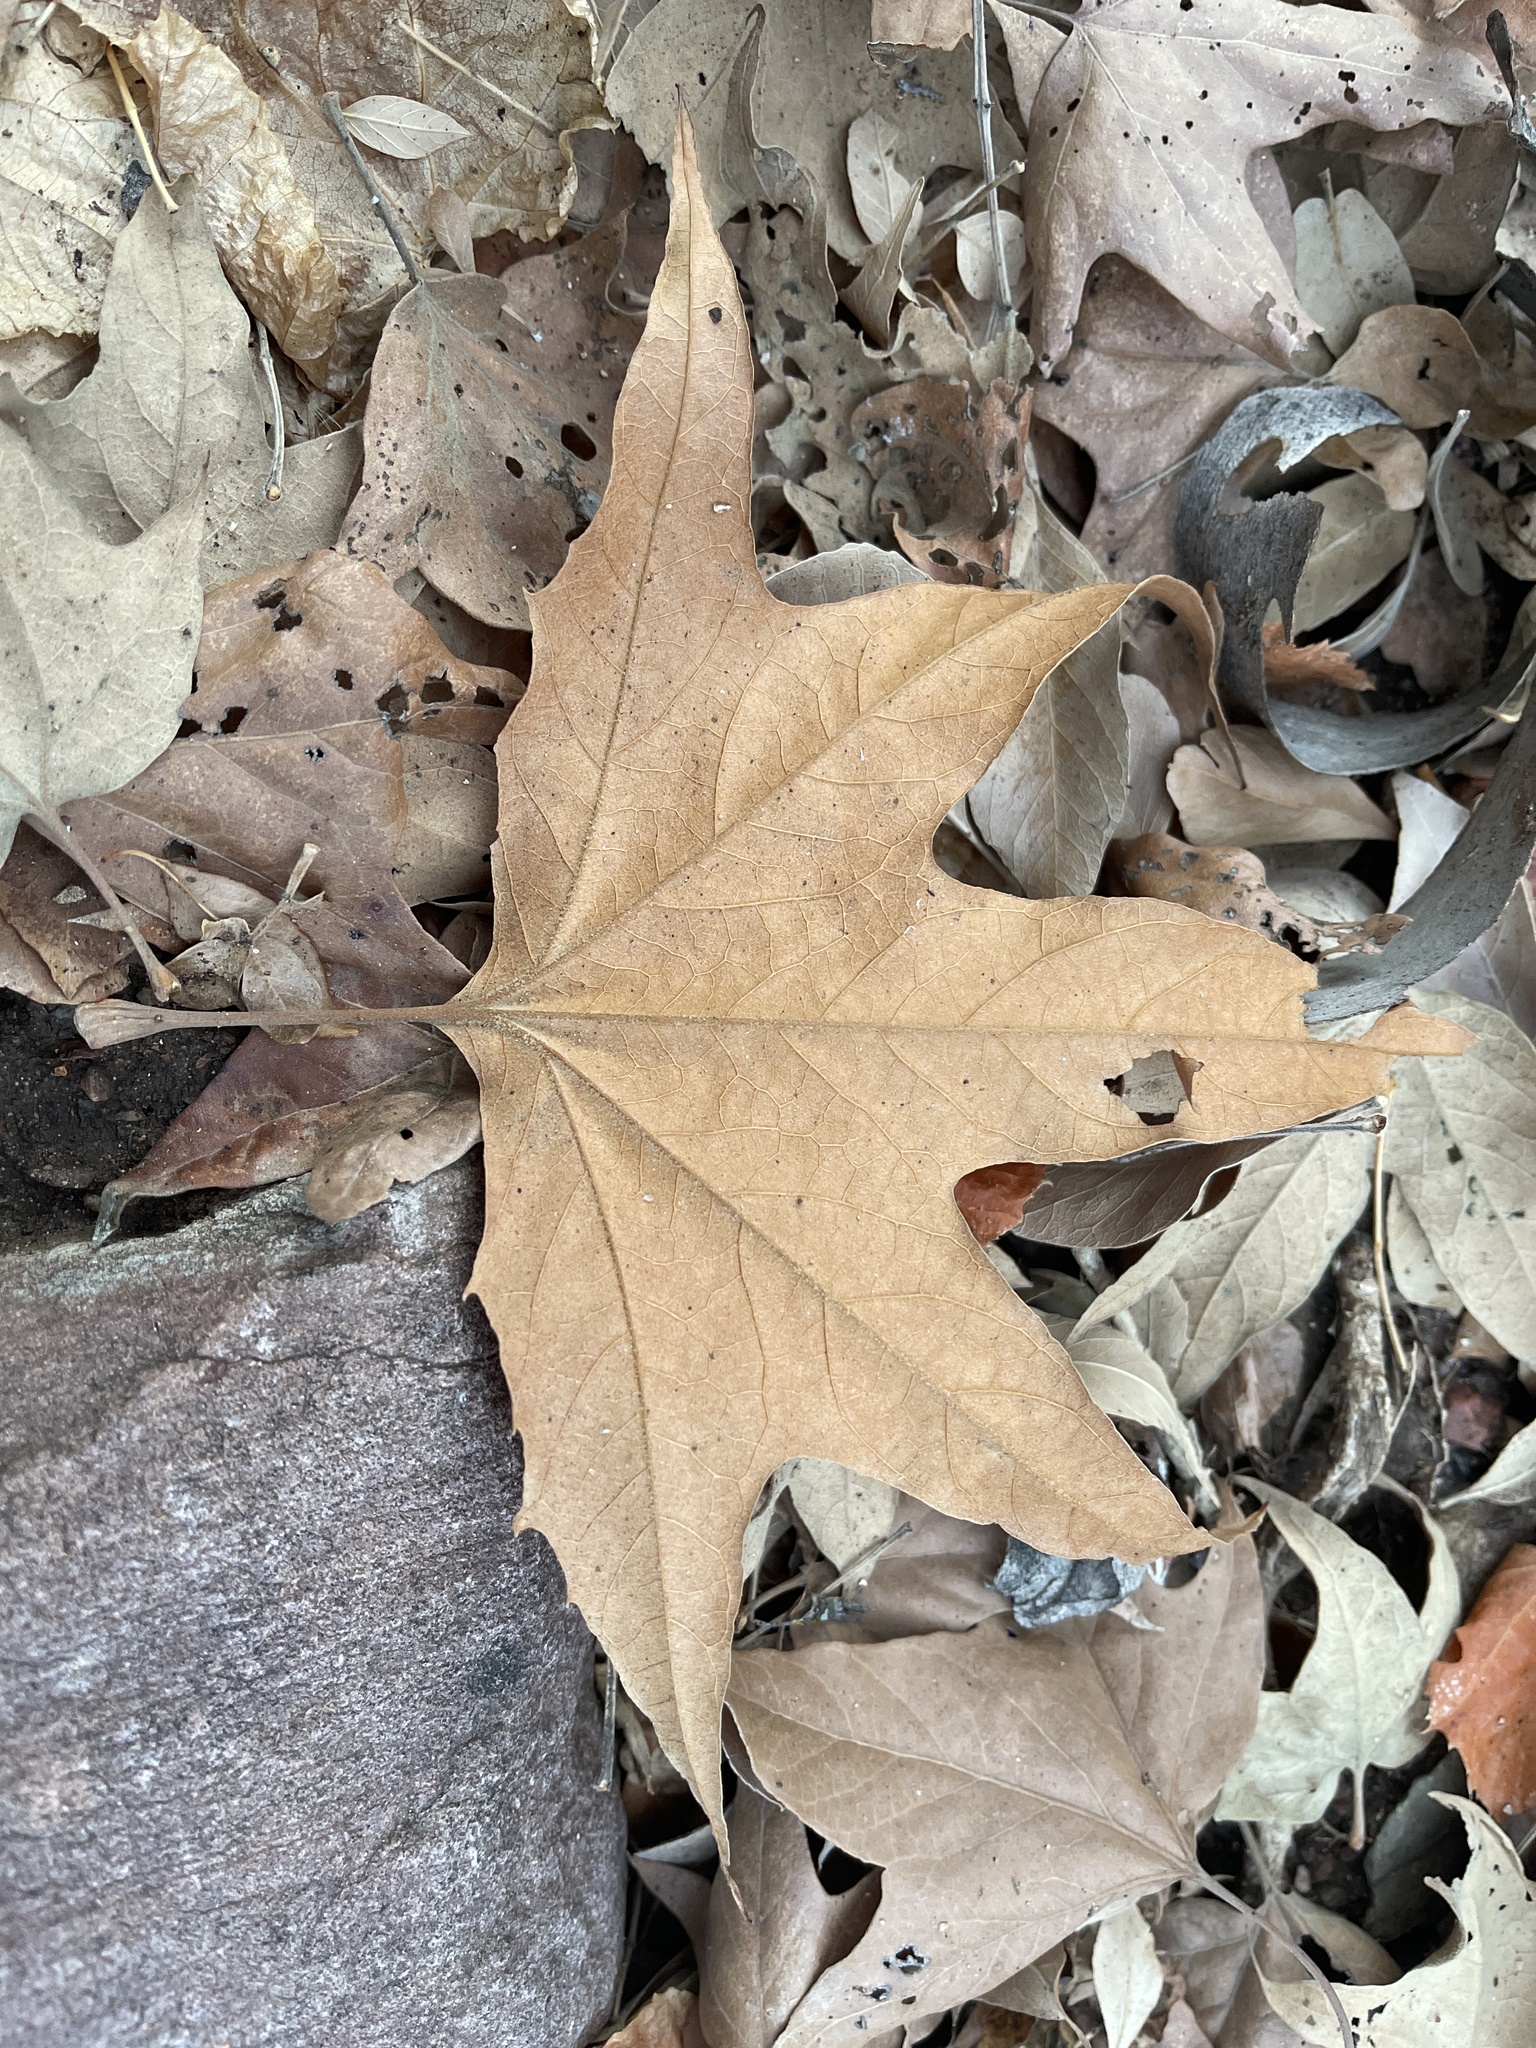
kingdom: Plantae
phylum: Tracheophyta
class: Magnoliopsida
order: Proteales
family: Platanaceae
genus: Platanus
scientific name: Platanus wrightii
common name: Arizona sycamore
